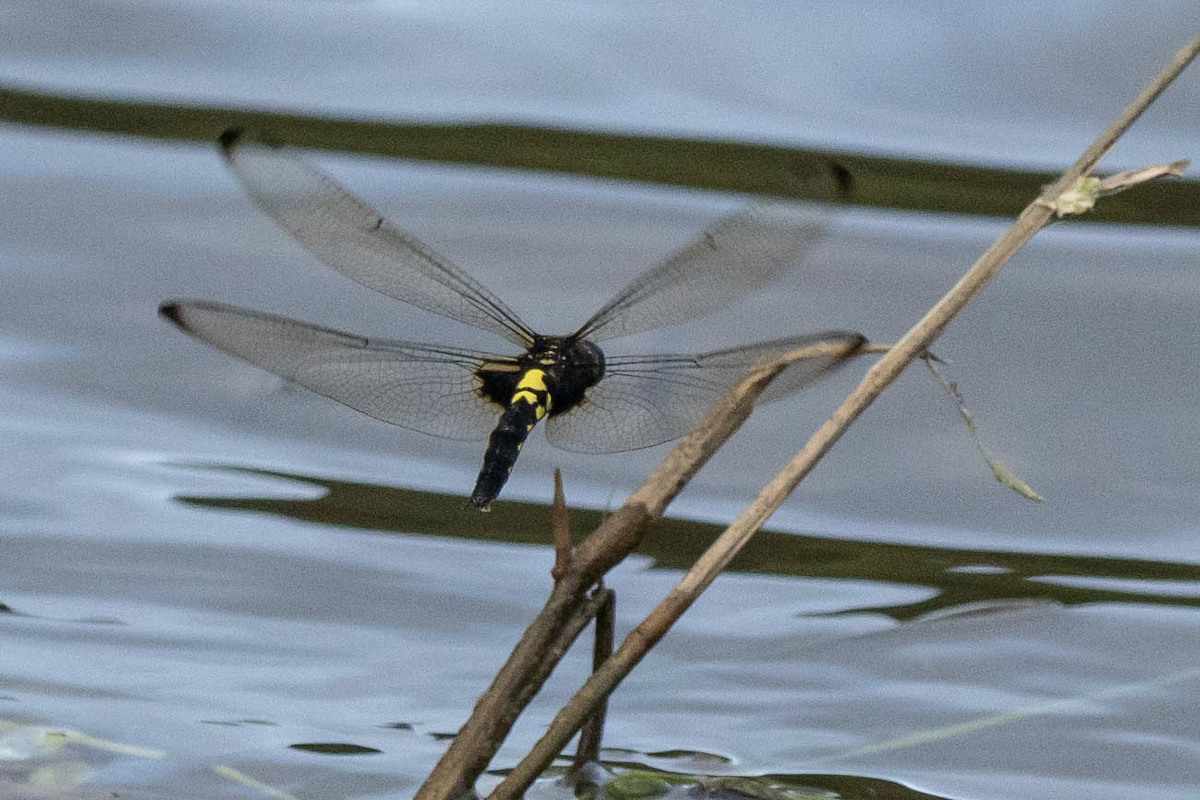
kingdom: Animalia
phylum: Arthropoda
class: Insecta
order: Odonata
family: Libellulidae
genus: Pseudothemis
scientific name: Pseudothemis zonata
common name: Pied skimmer
